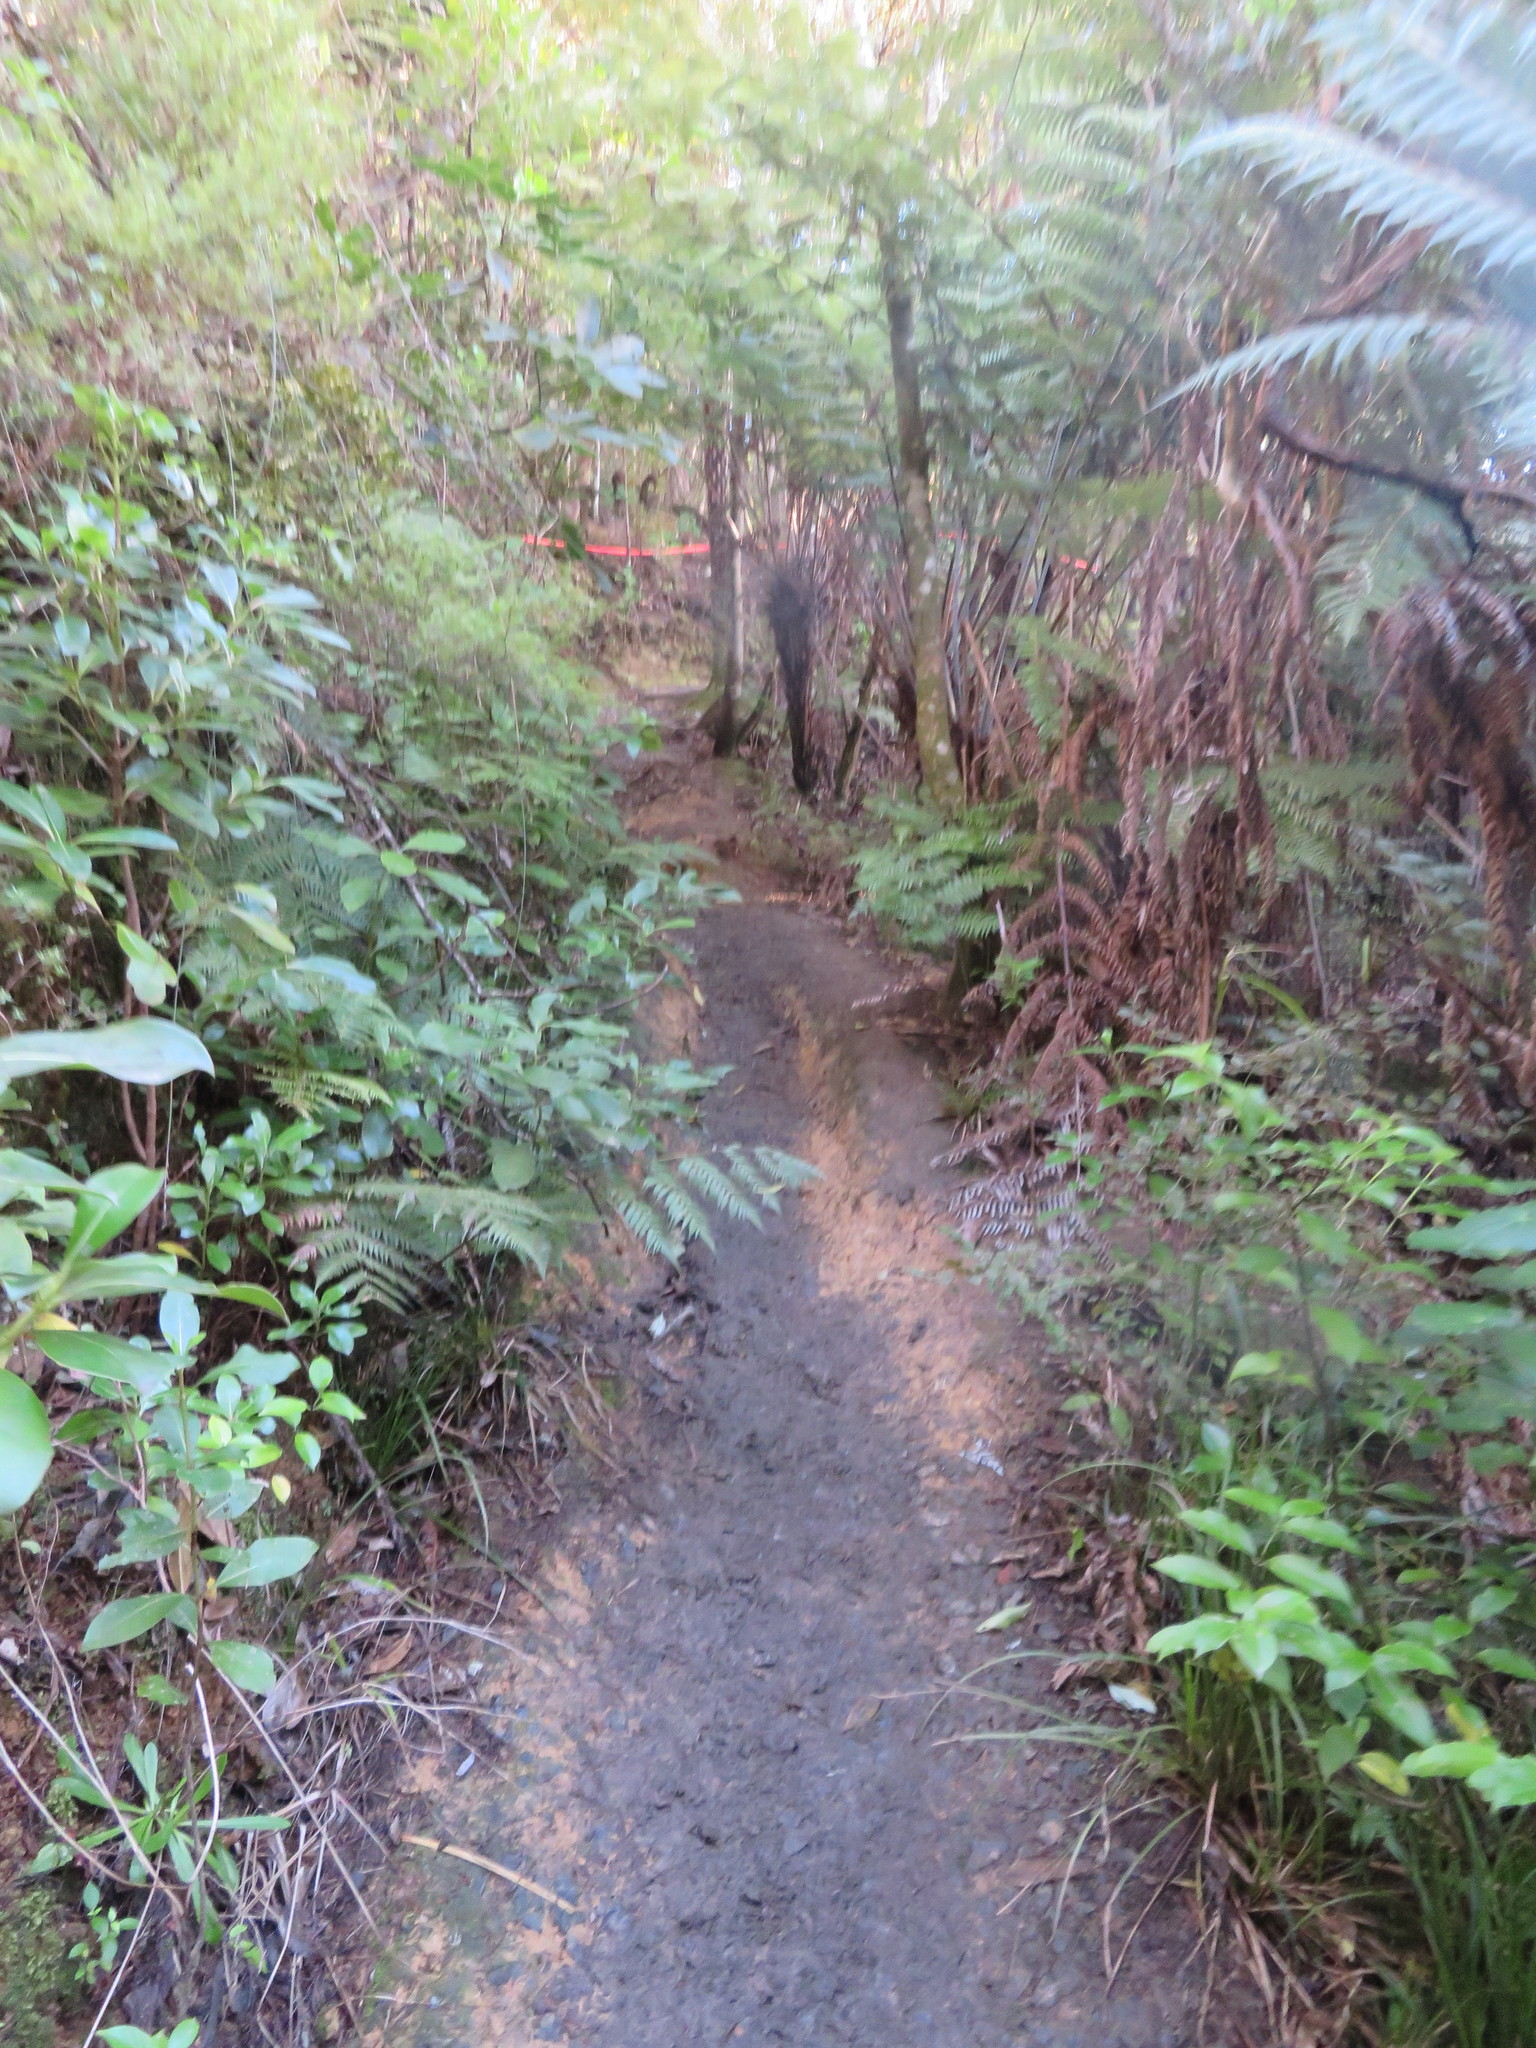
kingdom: Plantae
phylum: Tracheophyta
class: Magnoliopsida
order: Gentianales
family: Loganiaceae
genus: Geniostoma
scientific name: Geniostoma ligustrifolium
